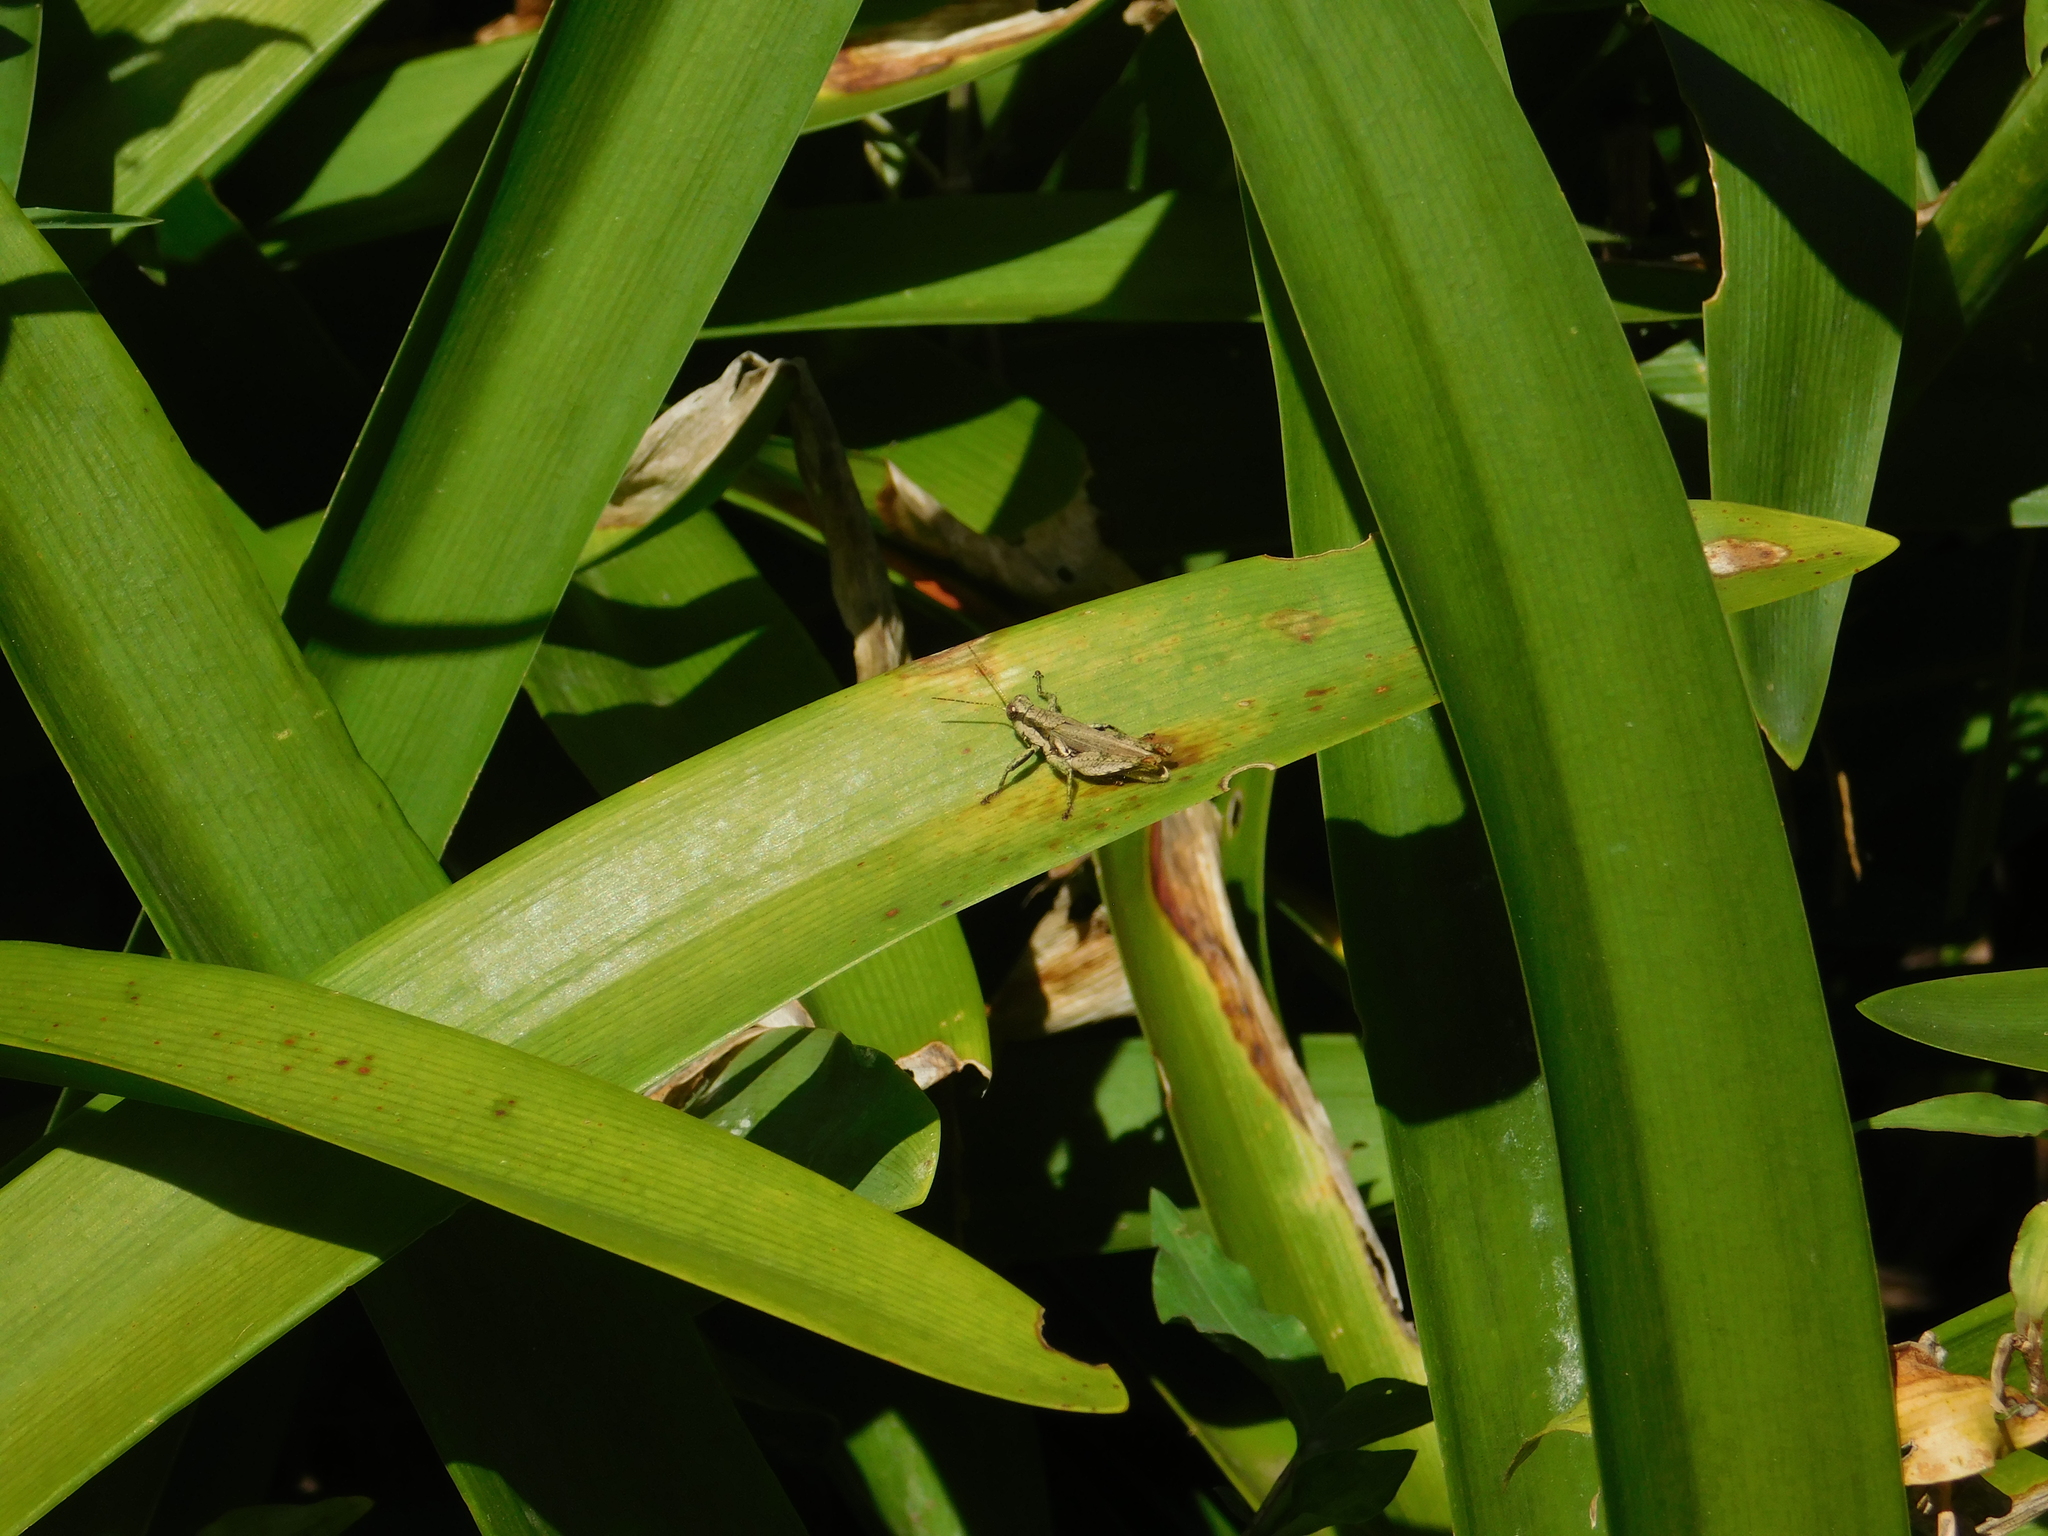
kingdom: Animalia
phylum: Arthropoda
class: Insecta
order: Orthoptera
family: Acrididae
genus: Ronderosia
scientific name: Ronderosia bergii
